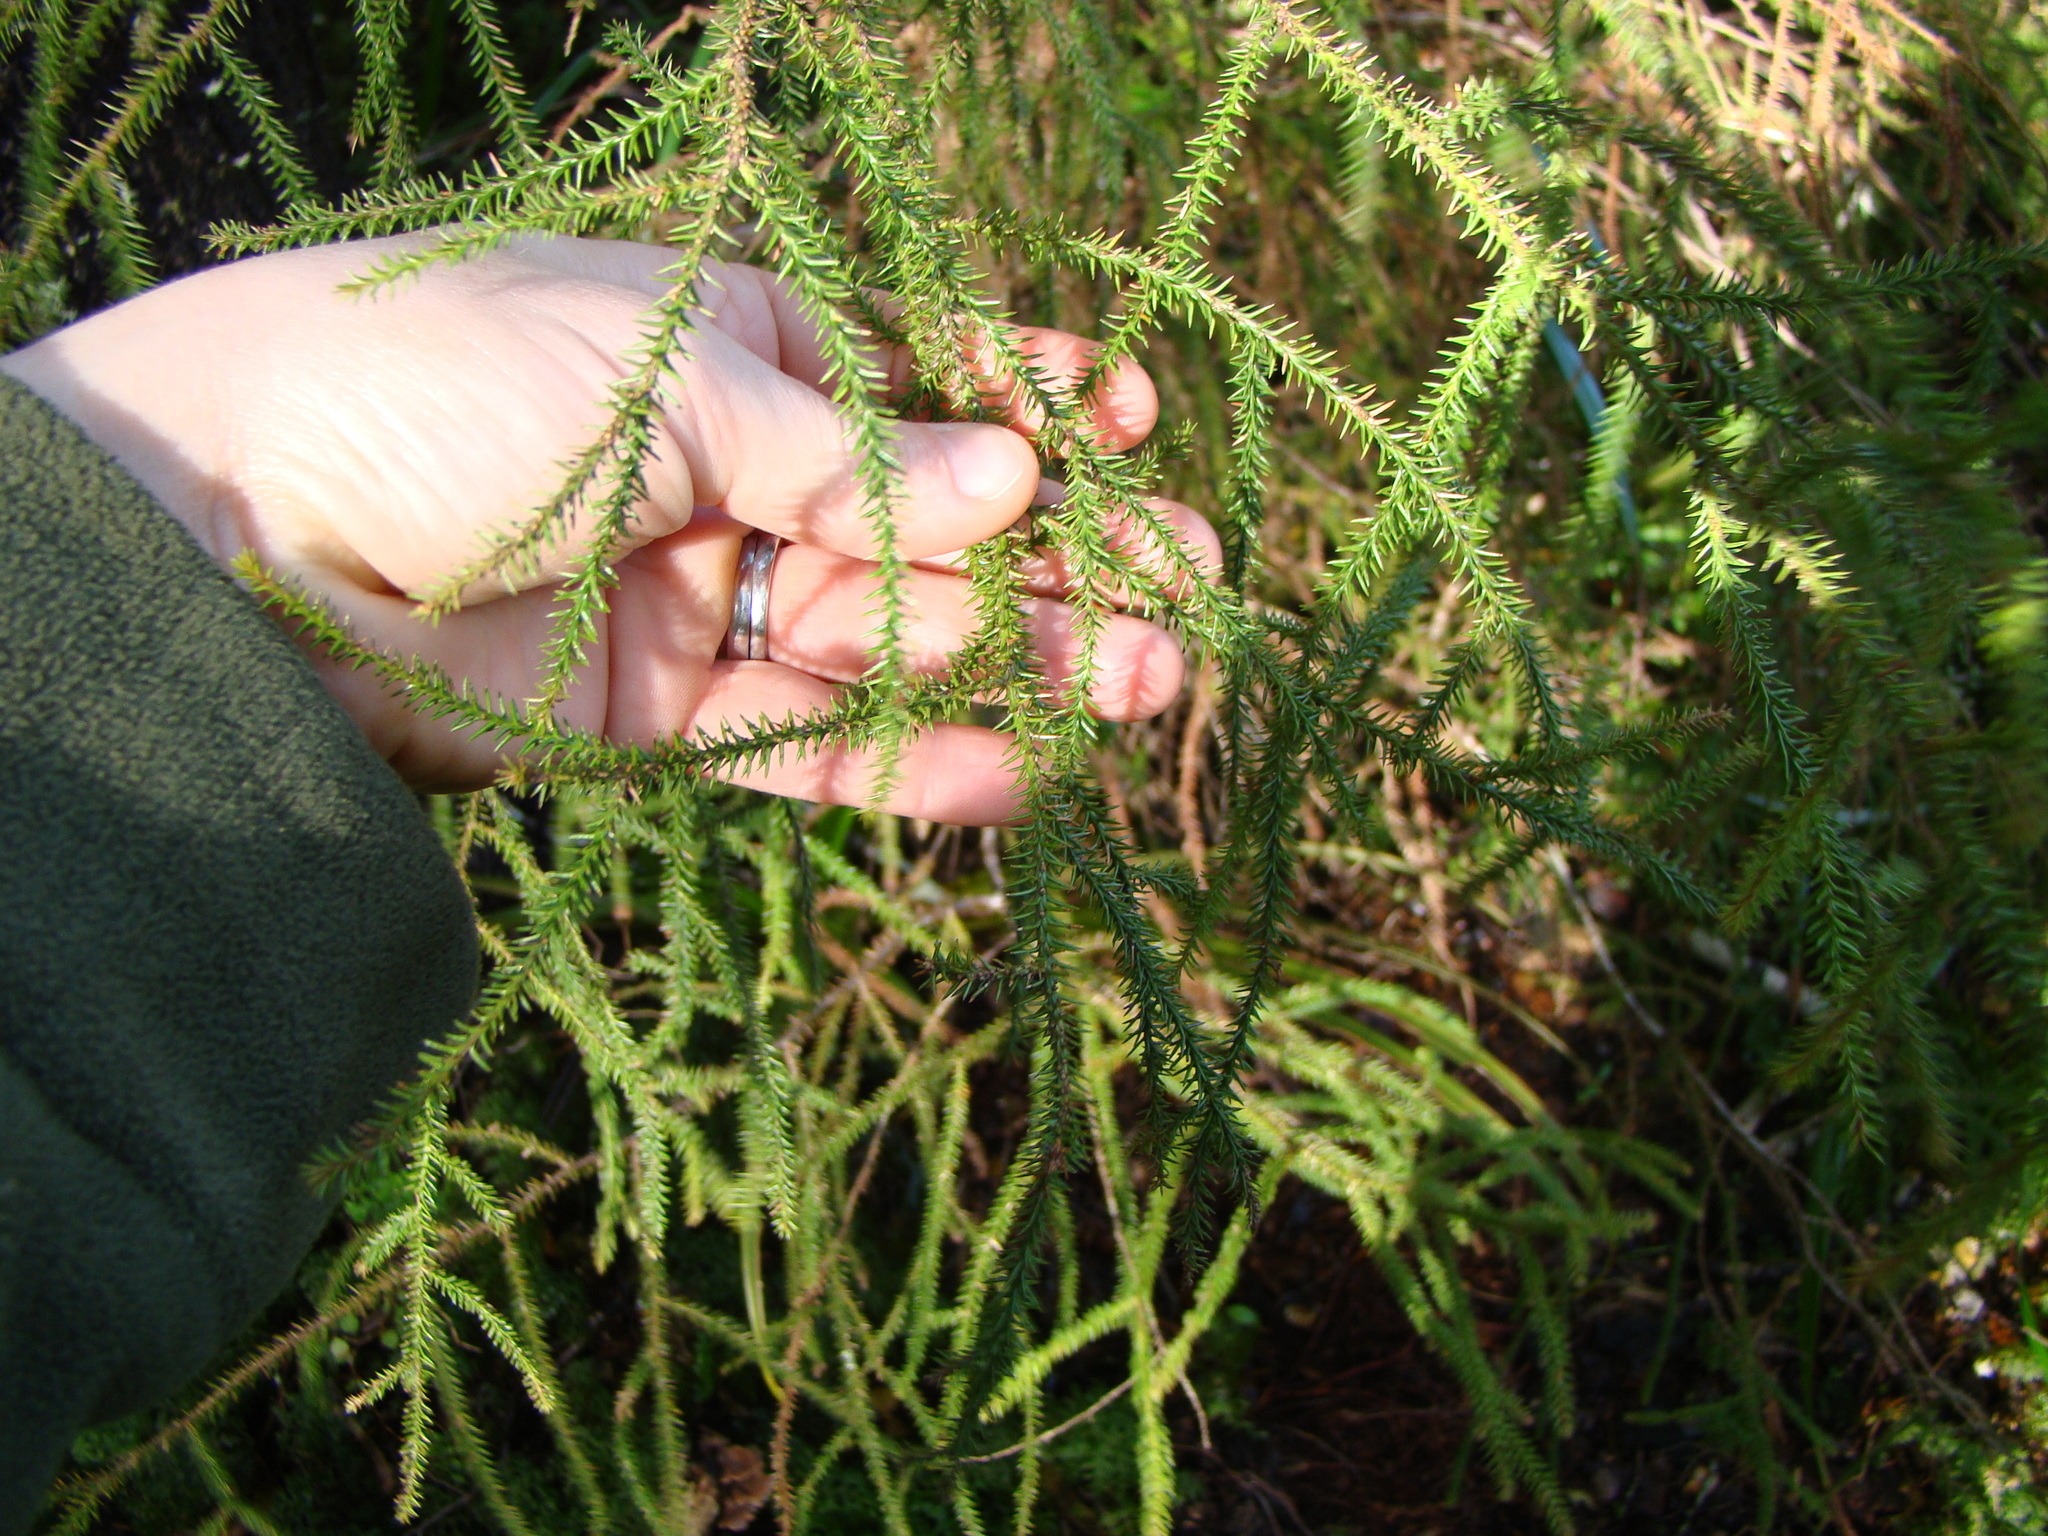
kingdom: Plantae
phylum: Tracheophyta
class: Pinopsida
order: Pinales
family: Podocarpaceae
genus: Dacrydium
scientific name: Dacrydium cupressinum
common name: Red pine
